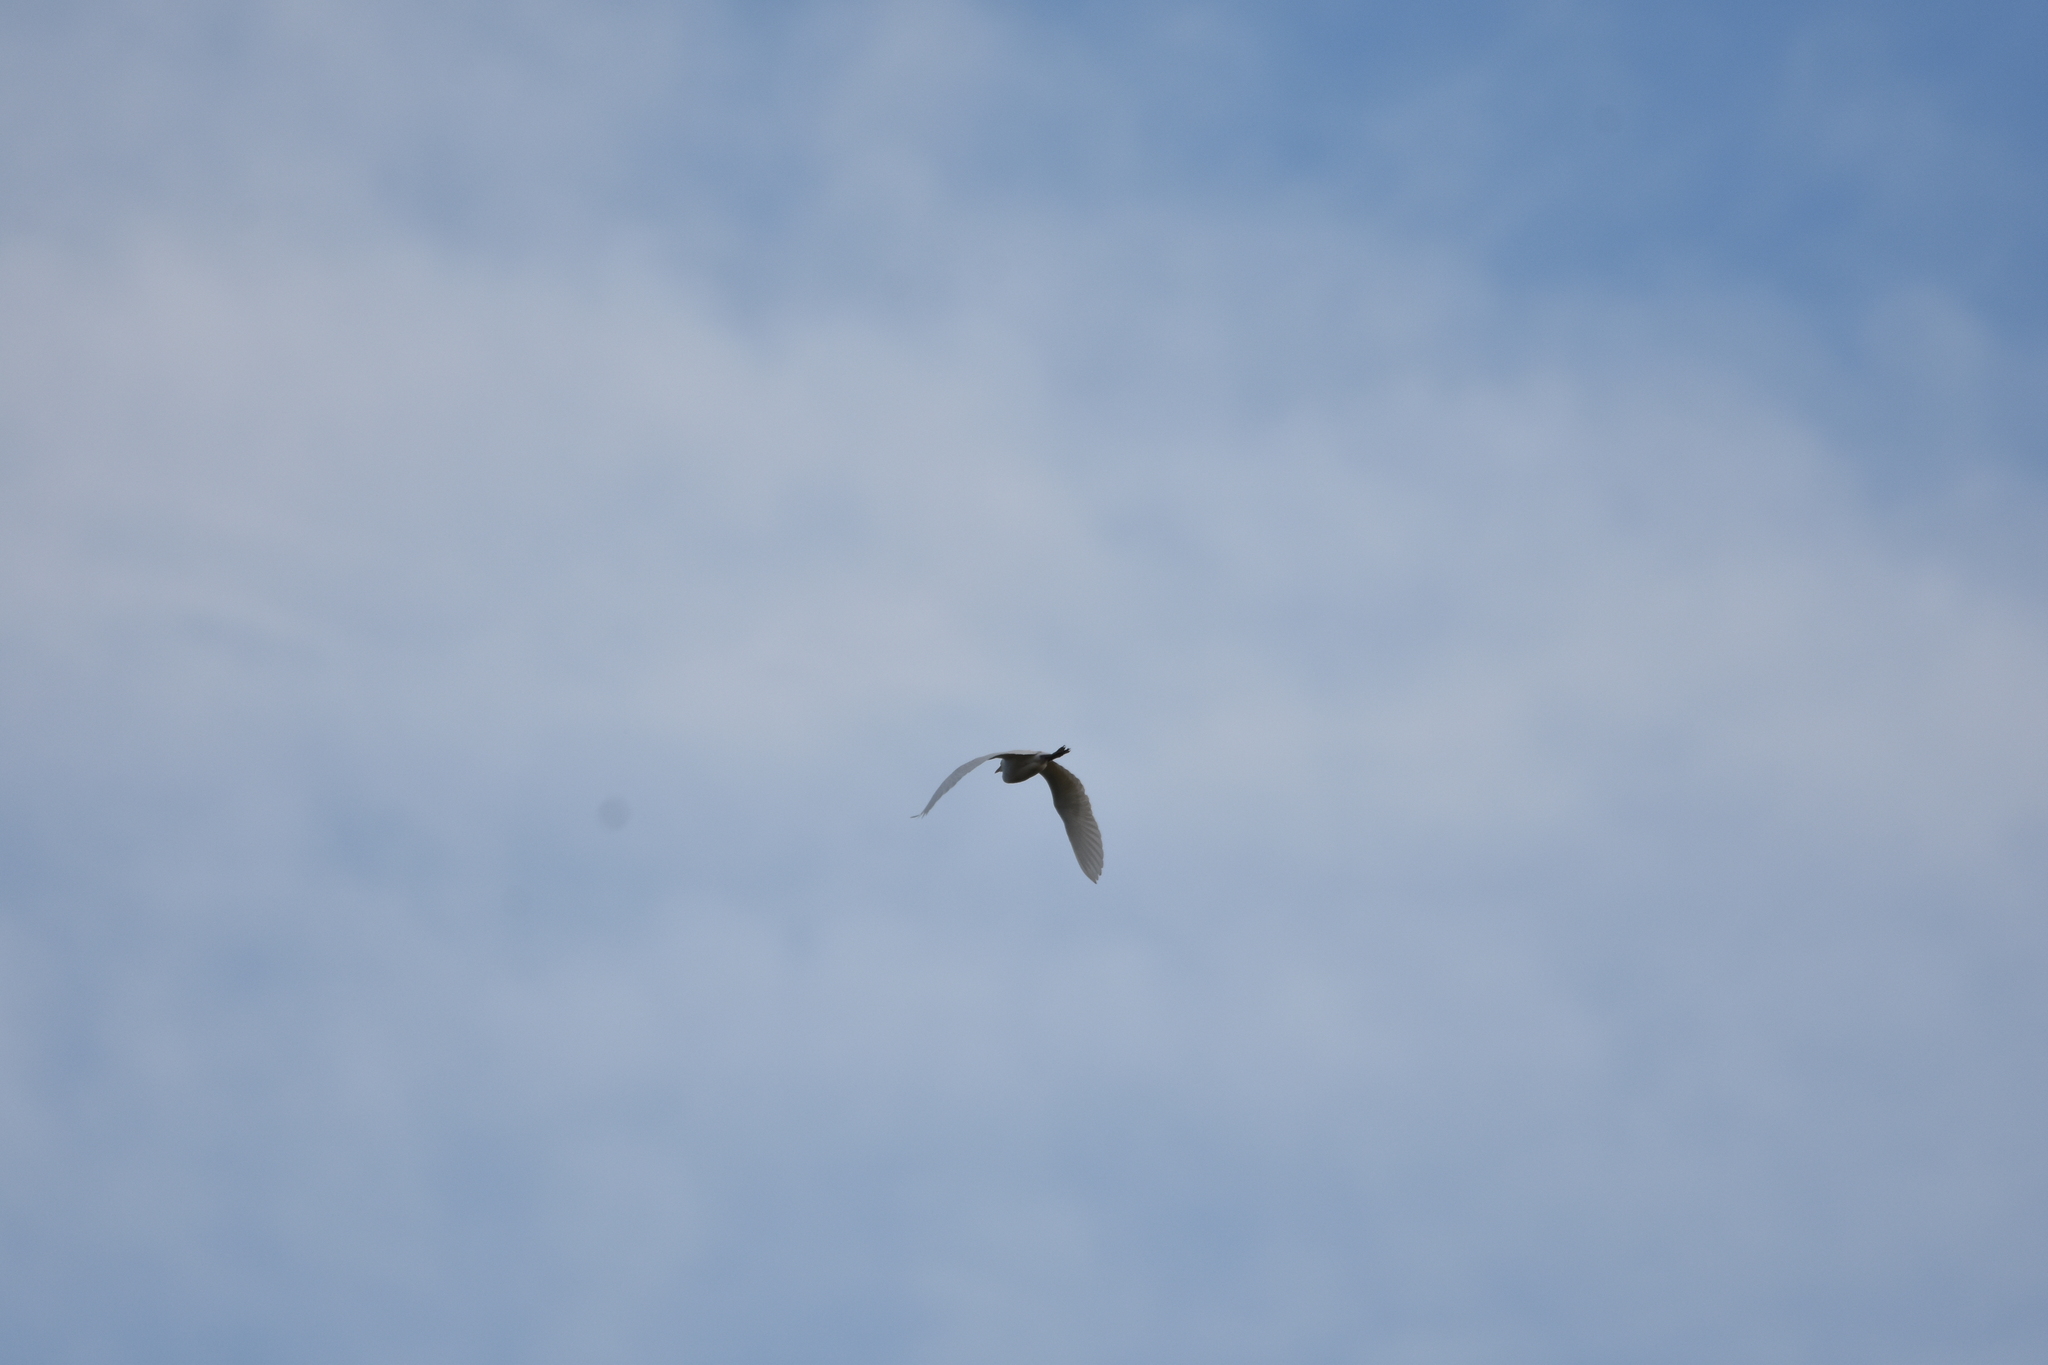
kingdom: Animalia
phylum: Chordata
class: Aves
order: Pelecaniformes
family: Ardeidae
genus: Bubulcus
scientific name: Bubulcus ibis
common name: Cattle egret
